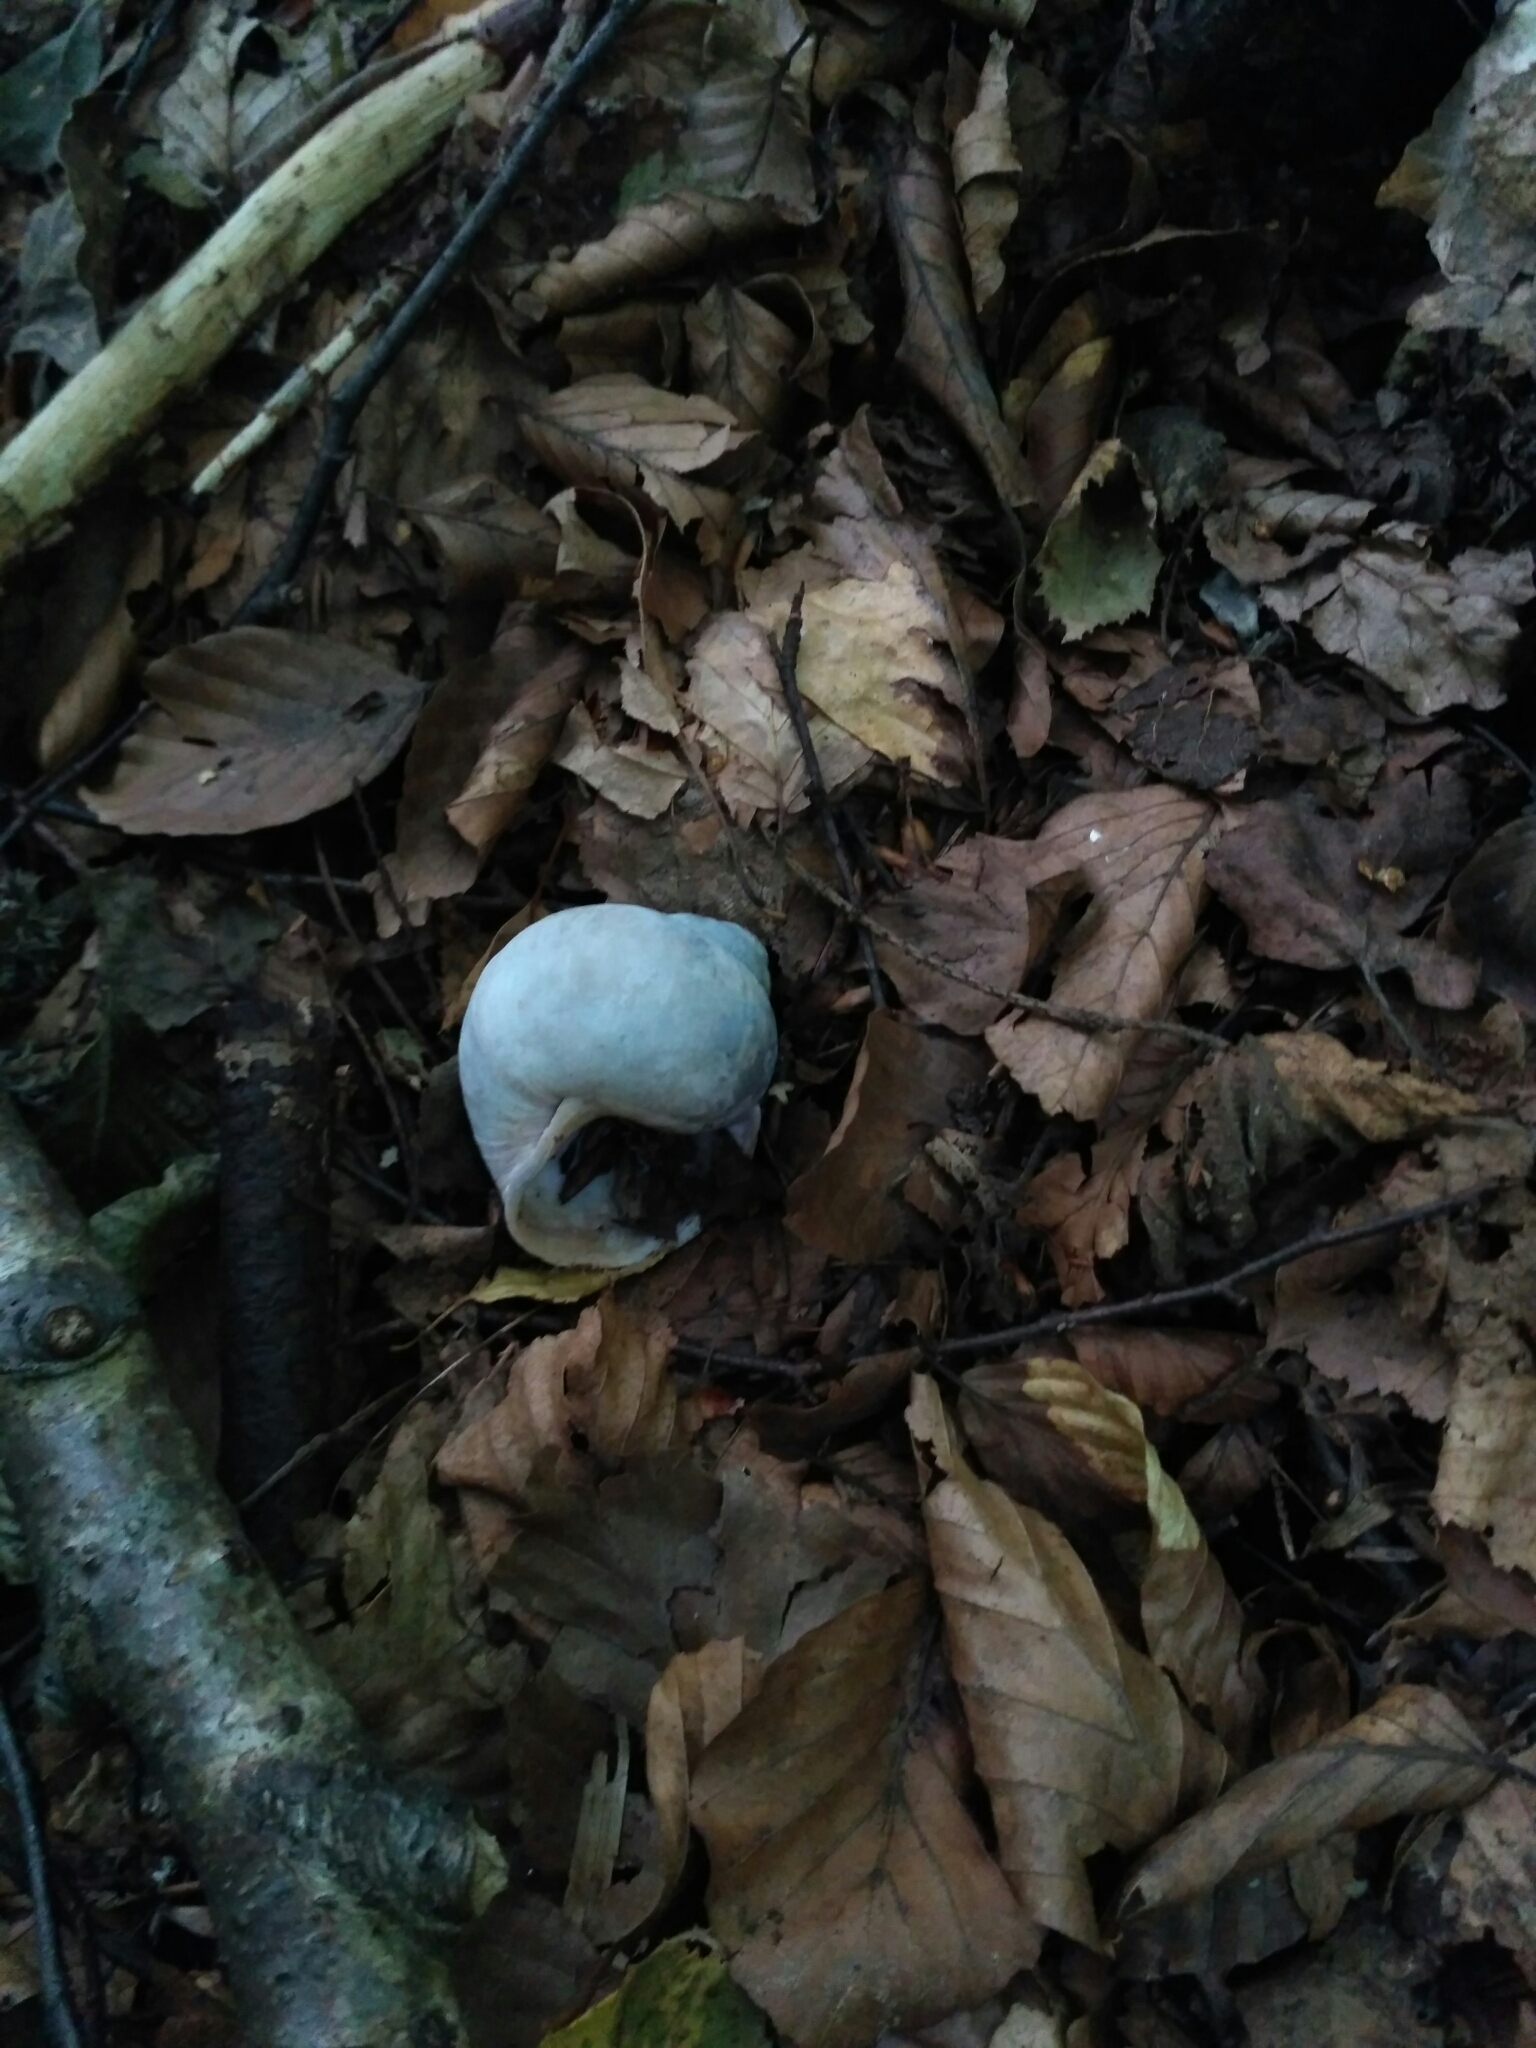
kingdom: Animalia
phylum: Mollusca
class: Gastropoda
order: Stylommatophora
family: Helicidae
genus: Helix
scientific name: Helix pomatia
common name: Roman snail
